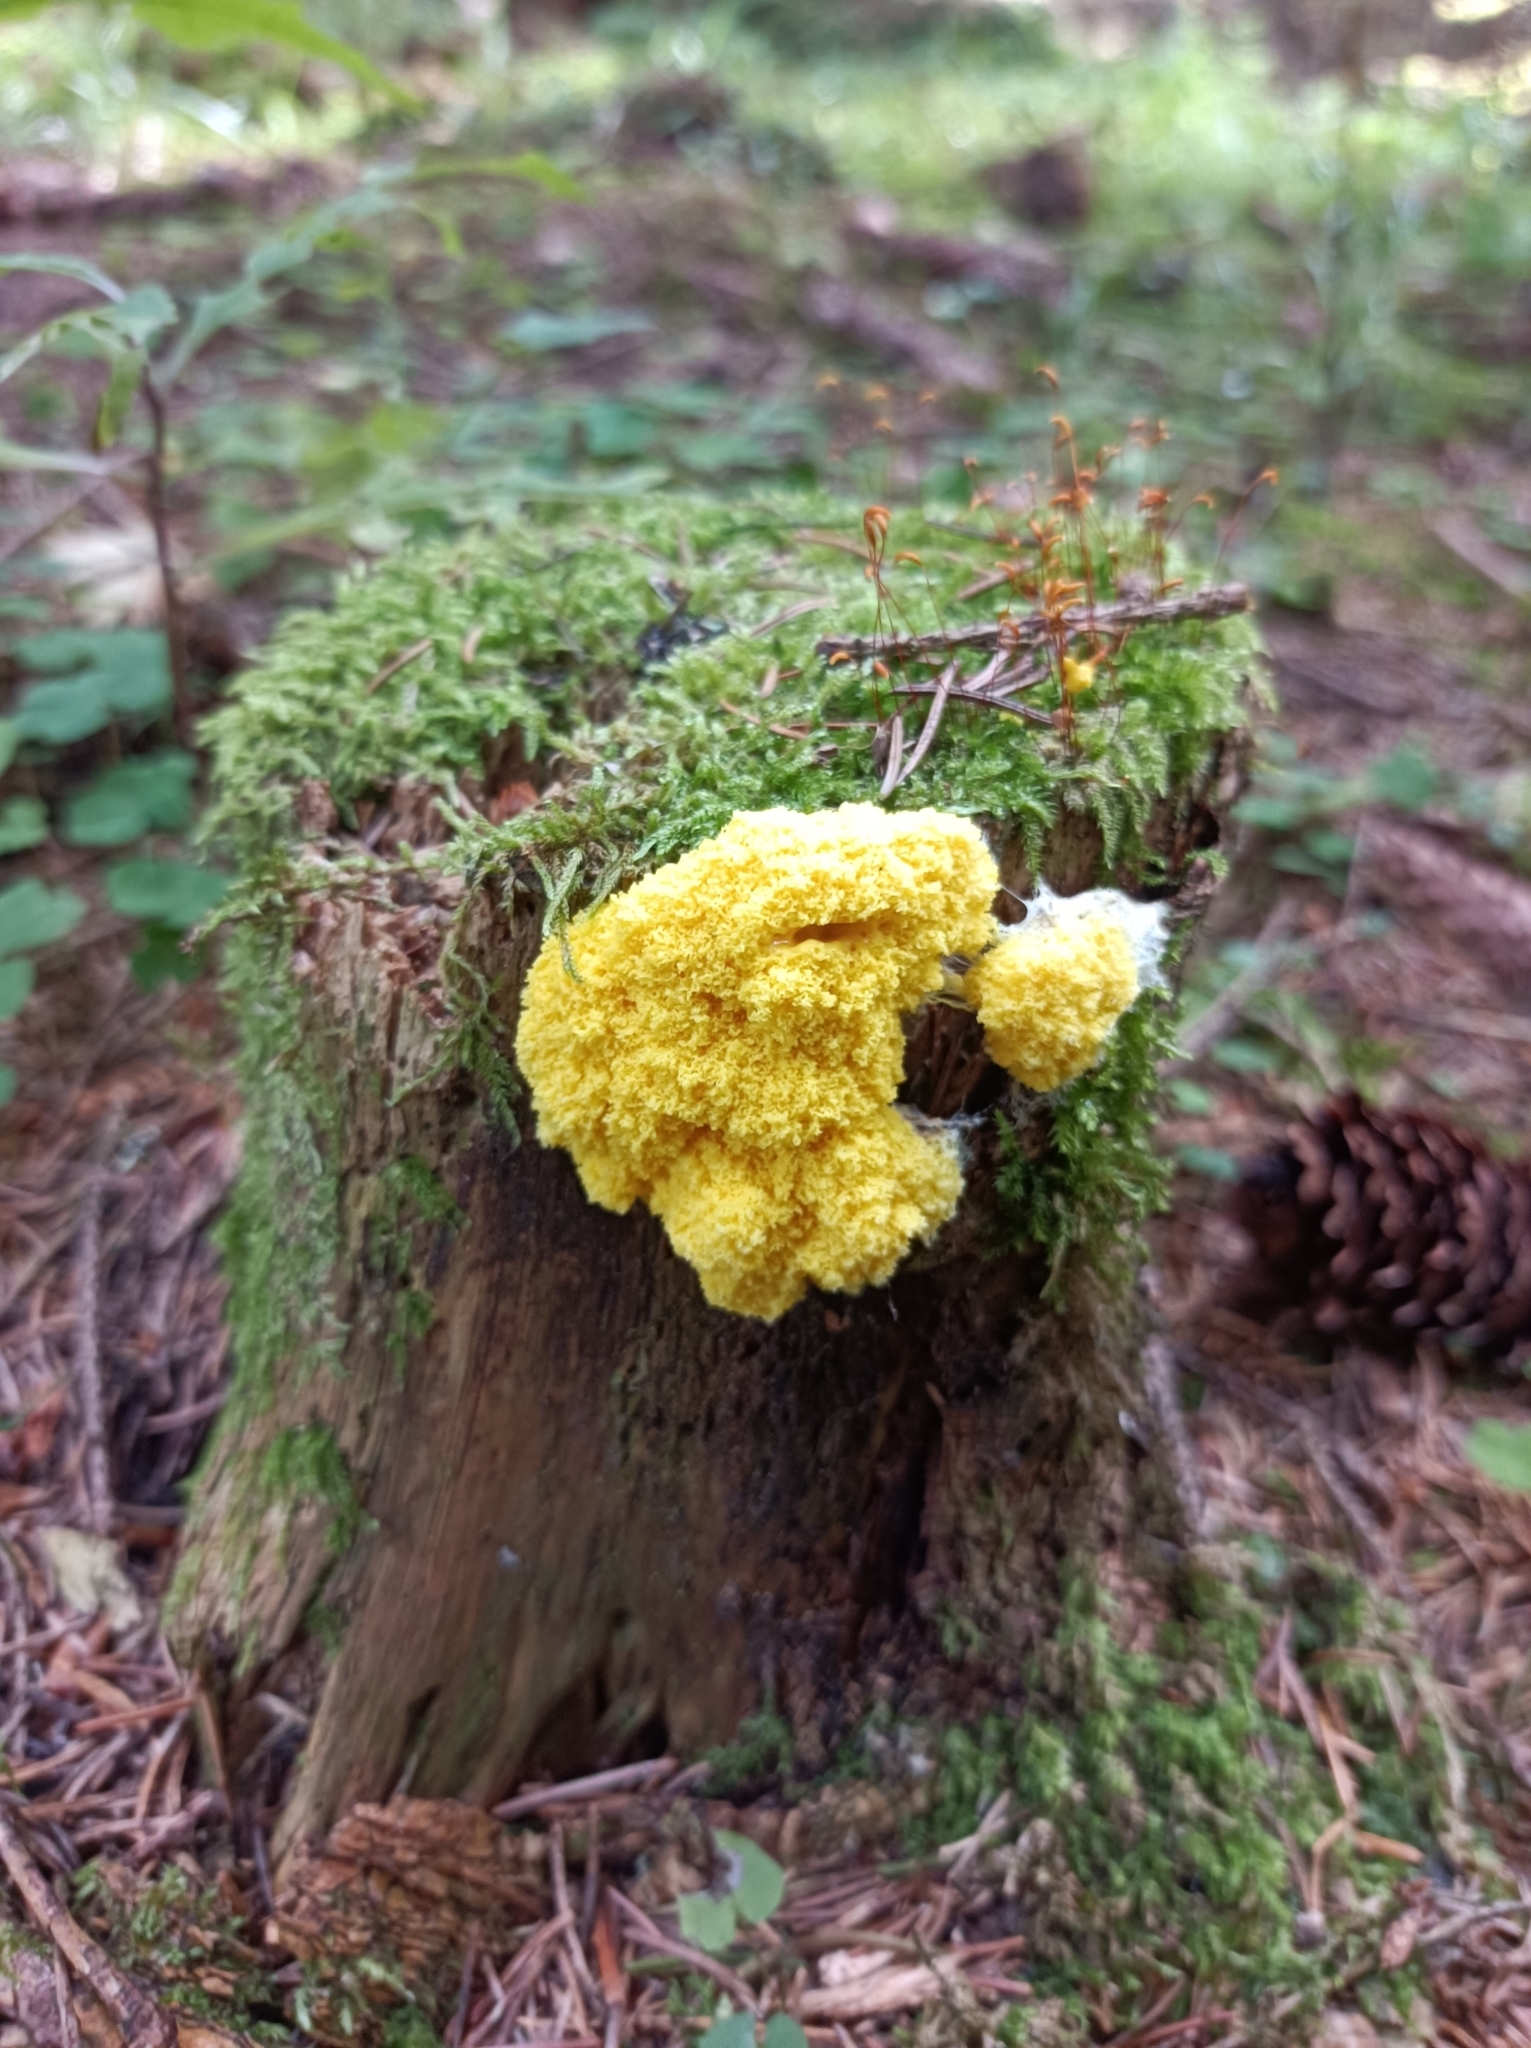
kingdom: Protozoa
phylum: Mycetozoa
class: Myxomycetes
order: Physarales
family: Physaraceae
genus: Fuligo
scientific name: Fuligo septica
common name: Dog vomit slime mold
